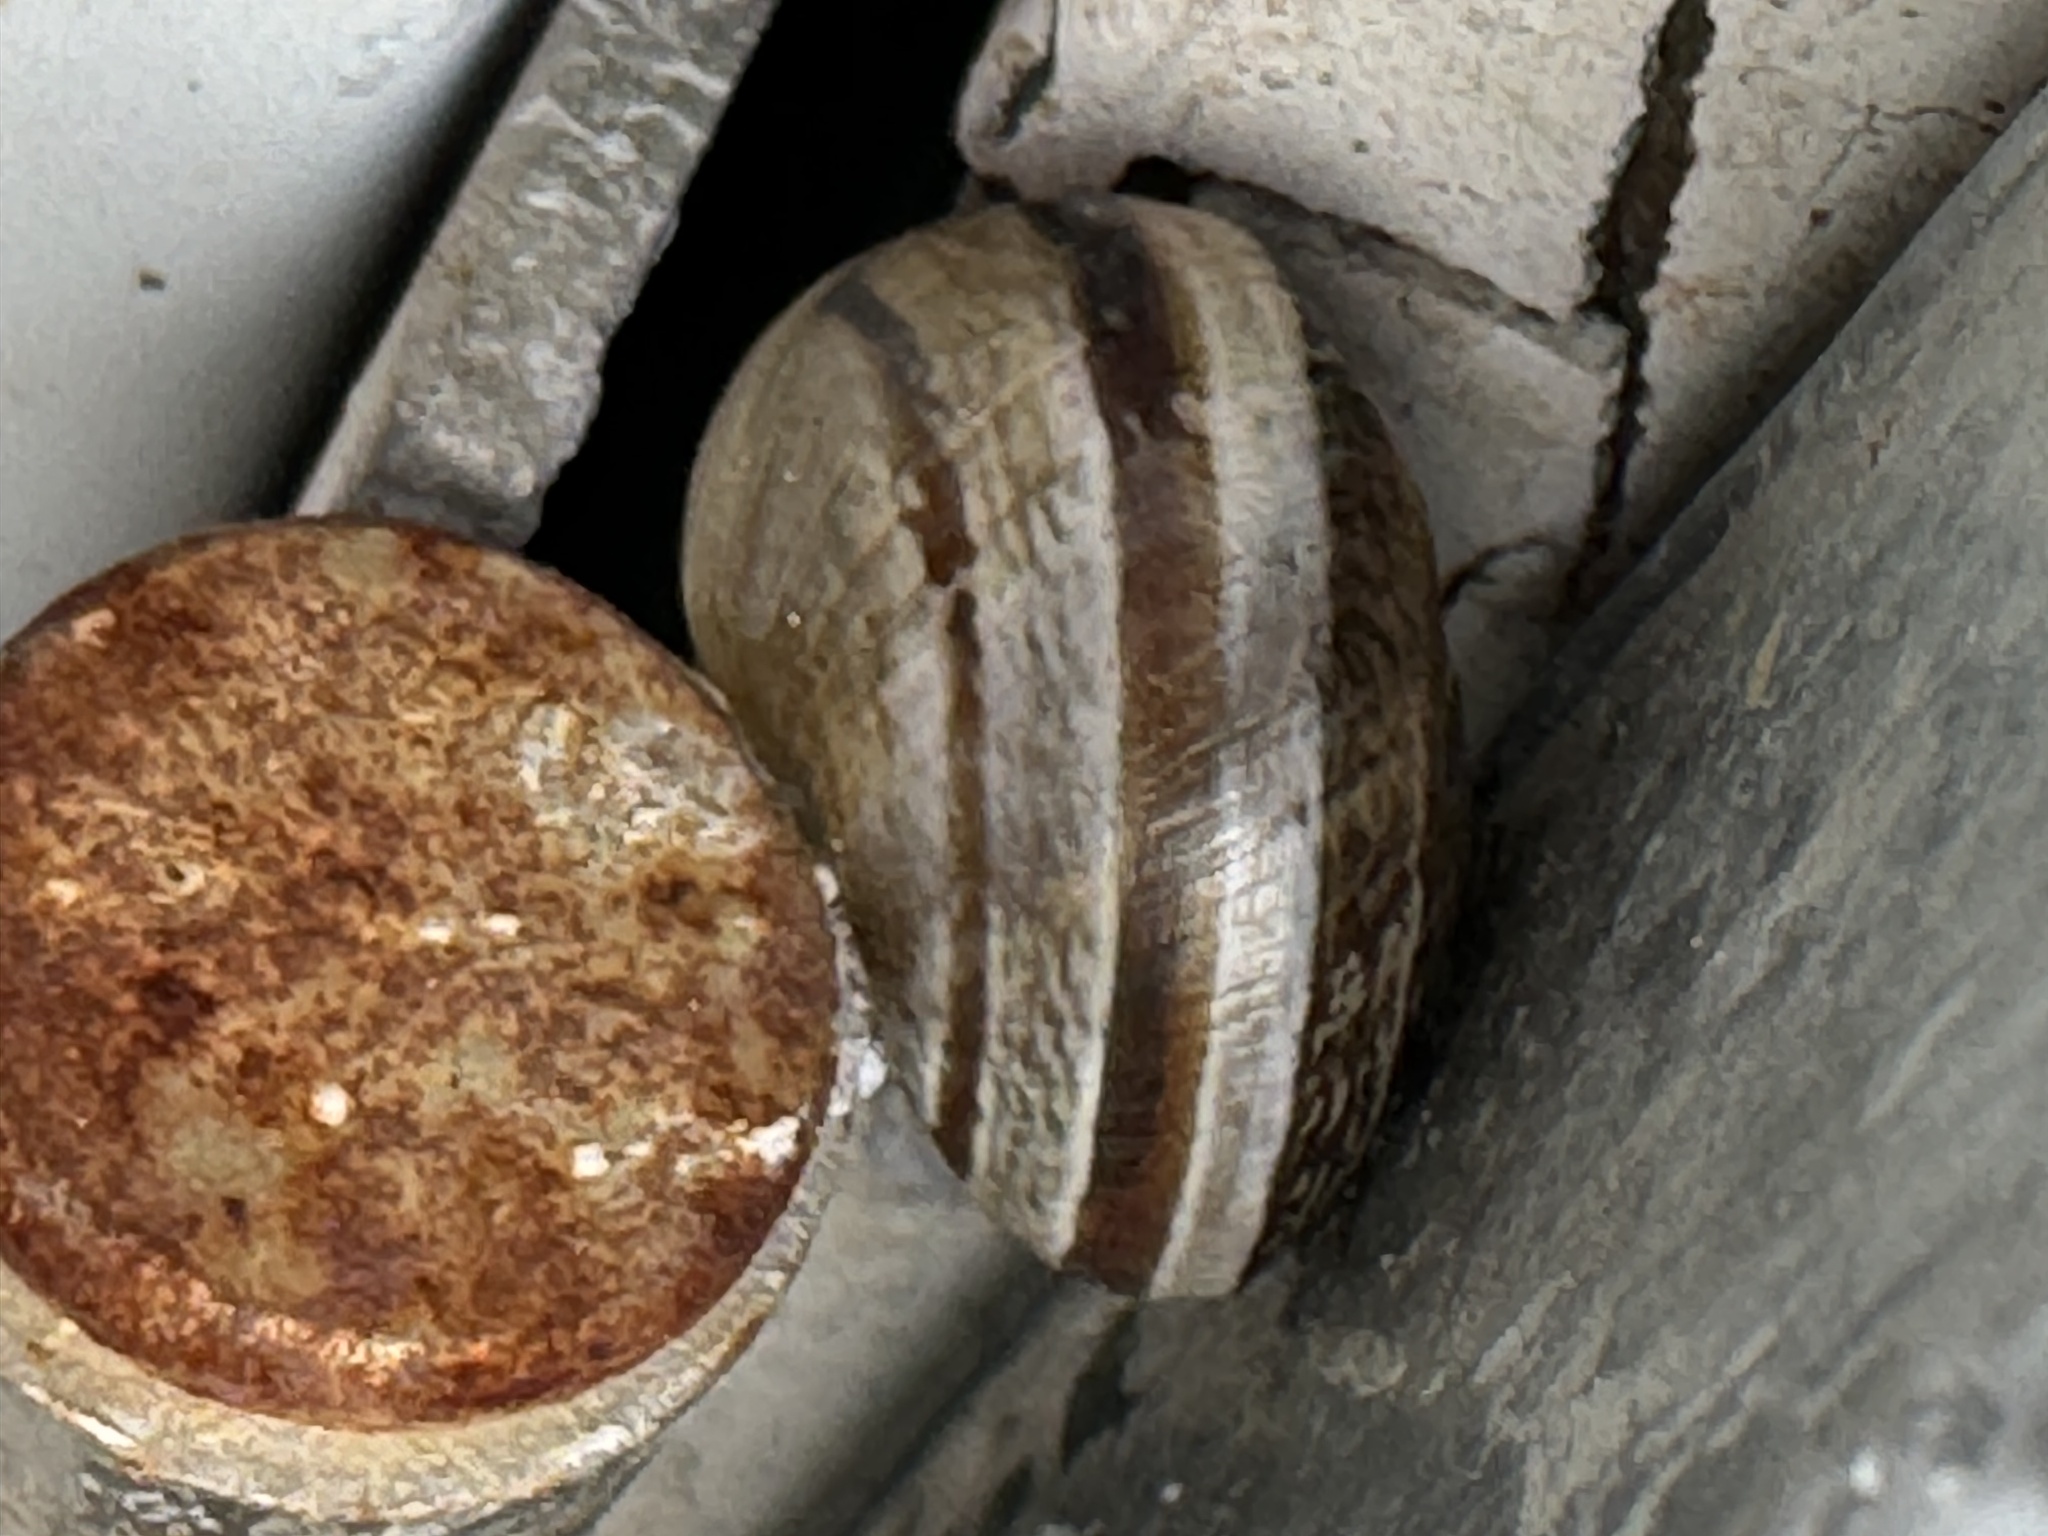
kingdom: Animalia
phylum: Mollusca
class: Gastropoda
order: Stylommatophora
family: Helicidae
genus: Otala
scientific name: Otala lactea
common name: Milk snail
